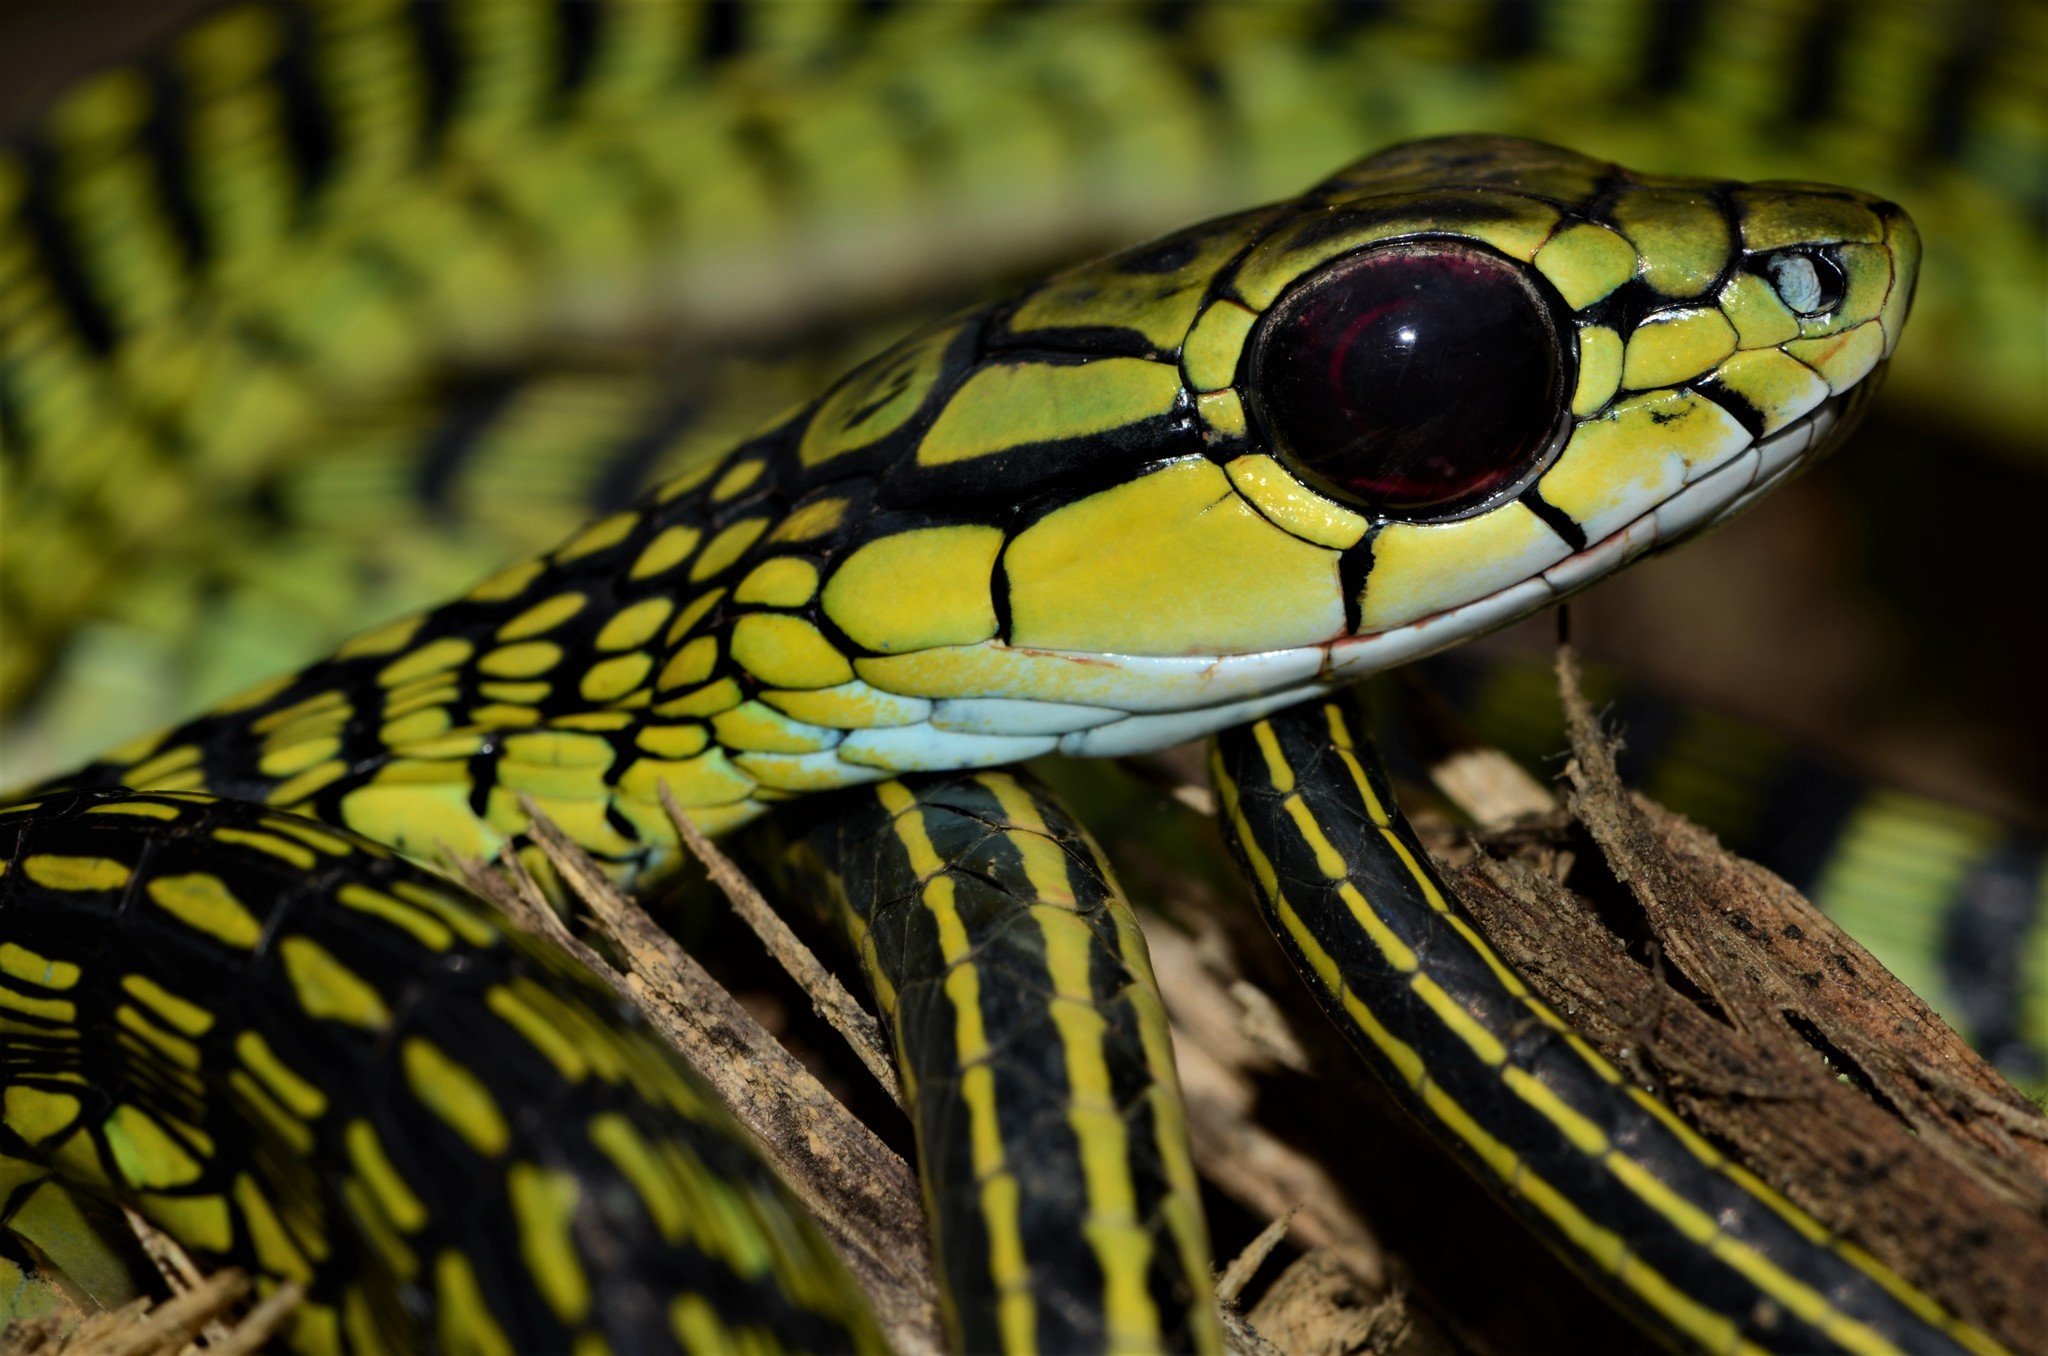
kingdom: Animalia
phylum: Chordata
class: Squamata
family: Colubridae
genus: Rhamnophis
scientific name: Rhamnophis aethiopissa
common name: Large-eyed green treesnake
